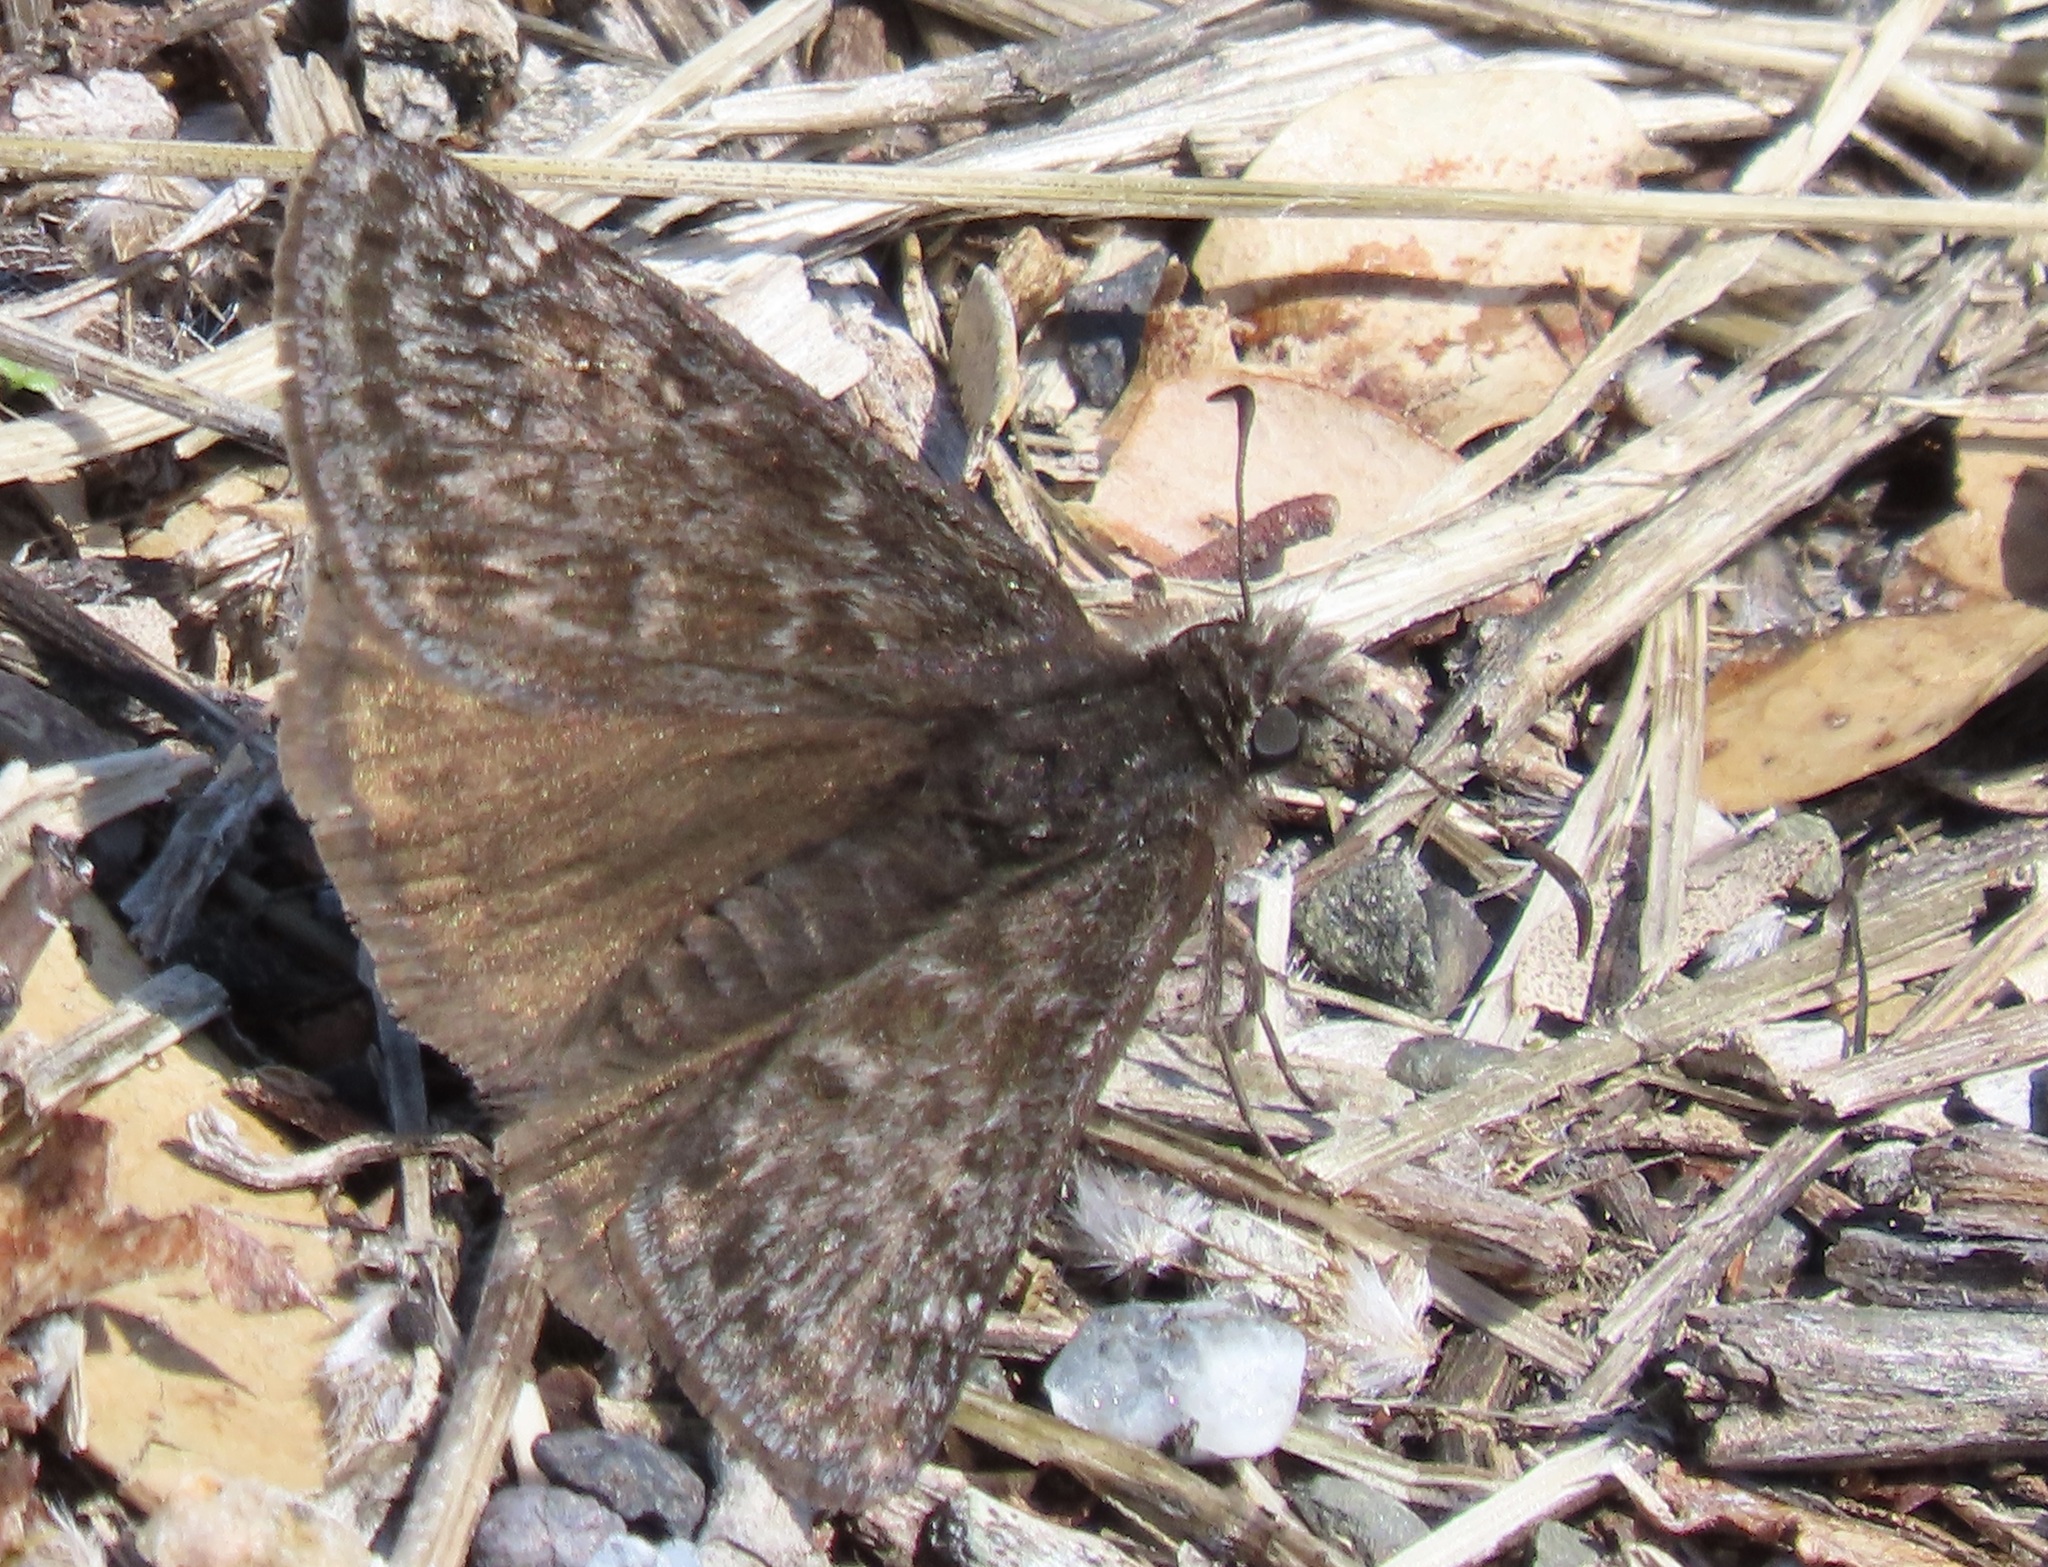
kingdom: Animalia
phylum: Arthropoda
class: Insecta
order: Lepidoptera
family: Hesperiidae
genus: Erynnis
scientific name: Erynnis propertius
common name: Propertius duskywing
